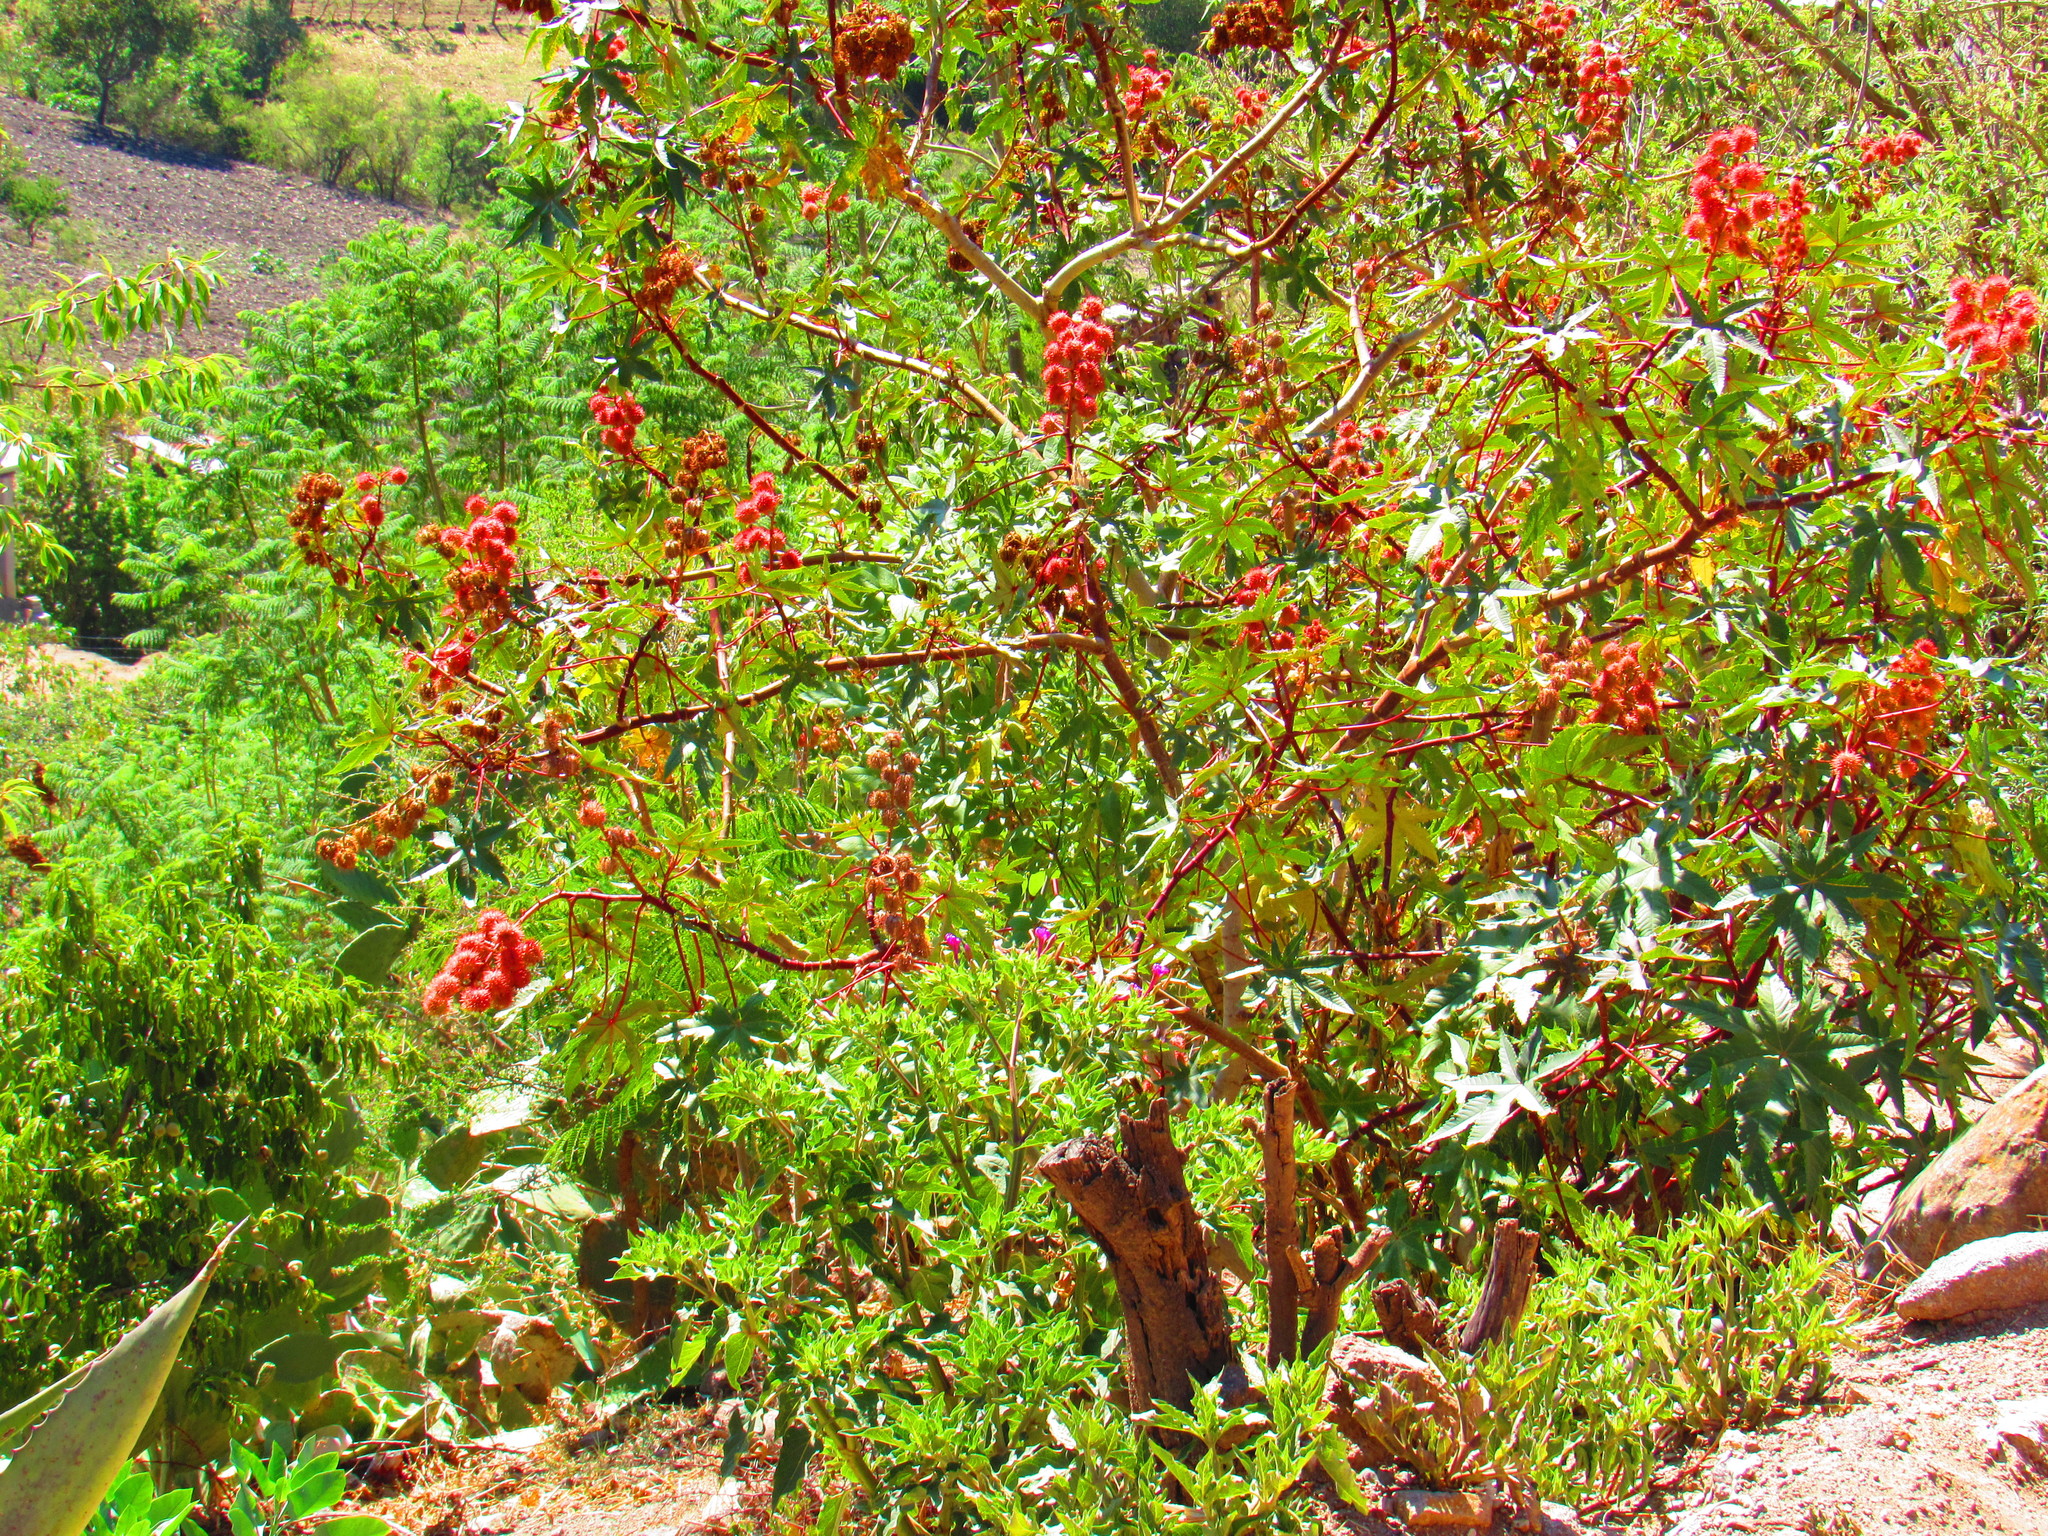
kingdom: Plantae
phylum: Tracheophyta
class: Magnoliopsida
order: Malpighiales
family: Euphorbiaceae
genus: Ricinus
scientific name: Ricinus communis
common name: Castor-oil-plant
